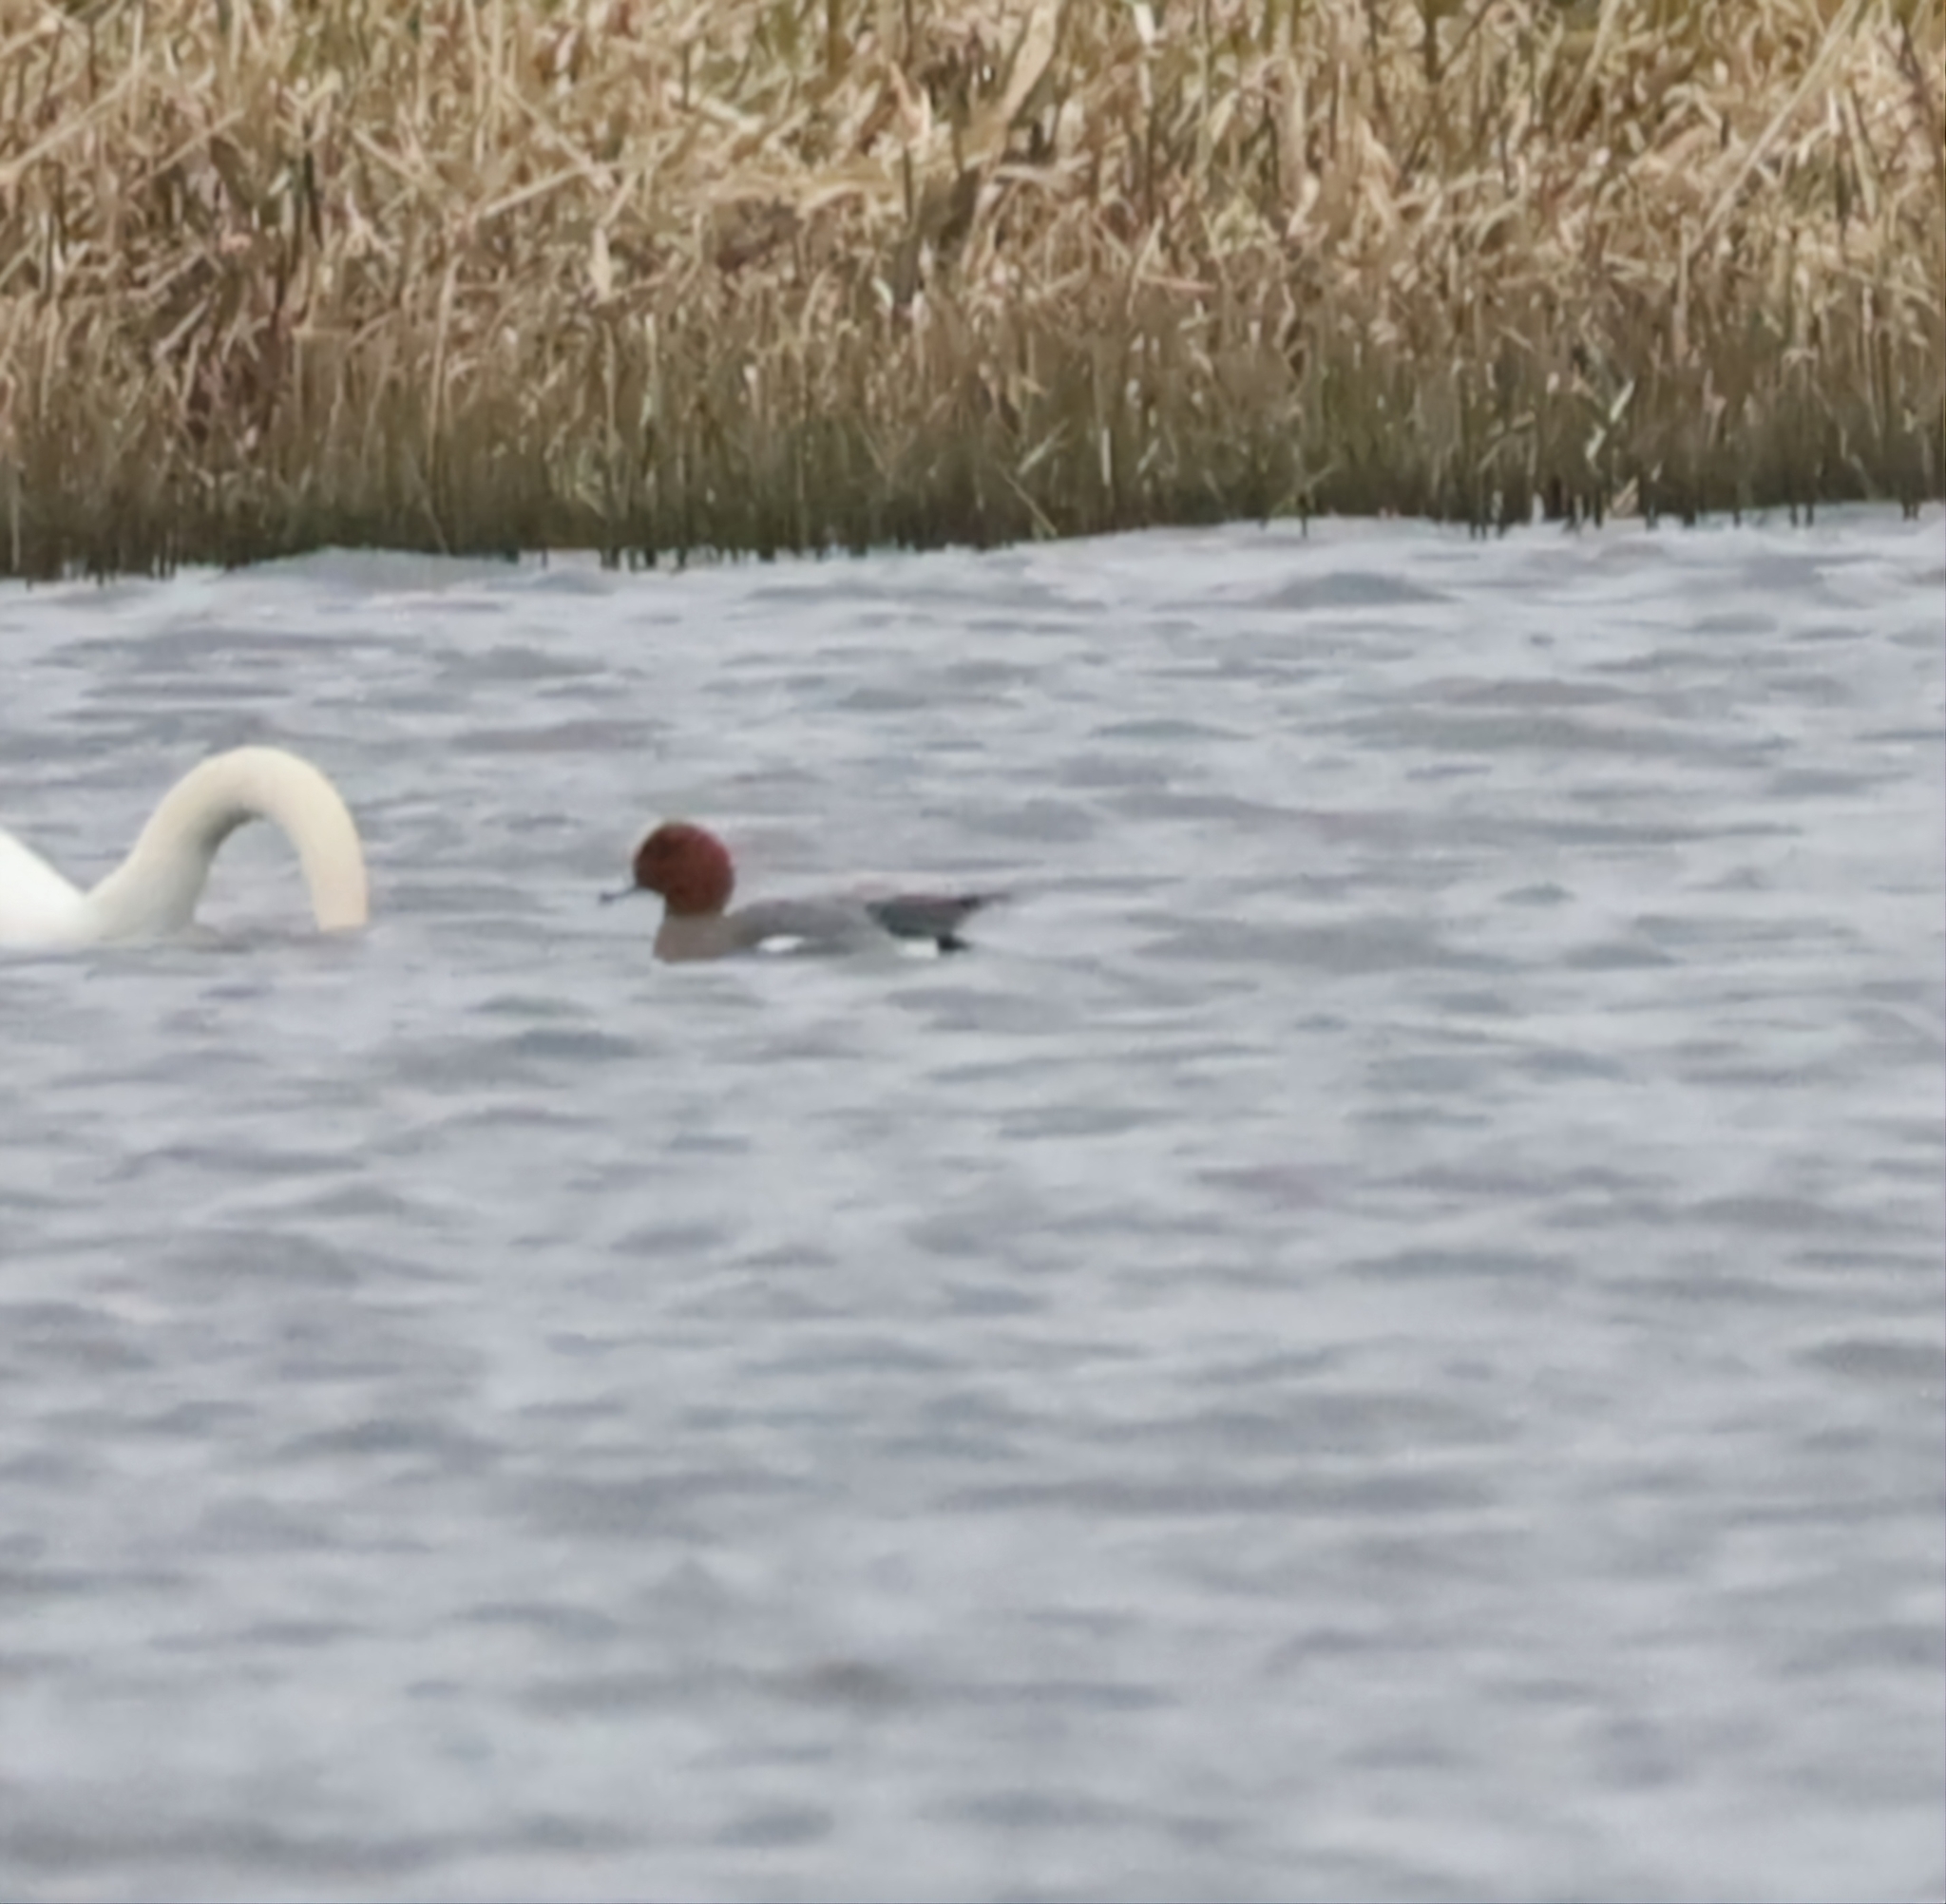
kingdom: Animalia
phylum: Chordata
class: Aves
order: Anseriformes
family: Anatidae
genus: Mareca
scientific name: Mareca penelope
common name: Eurasian wigeon
